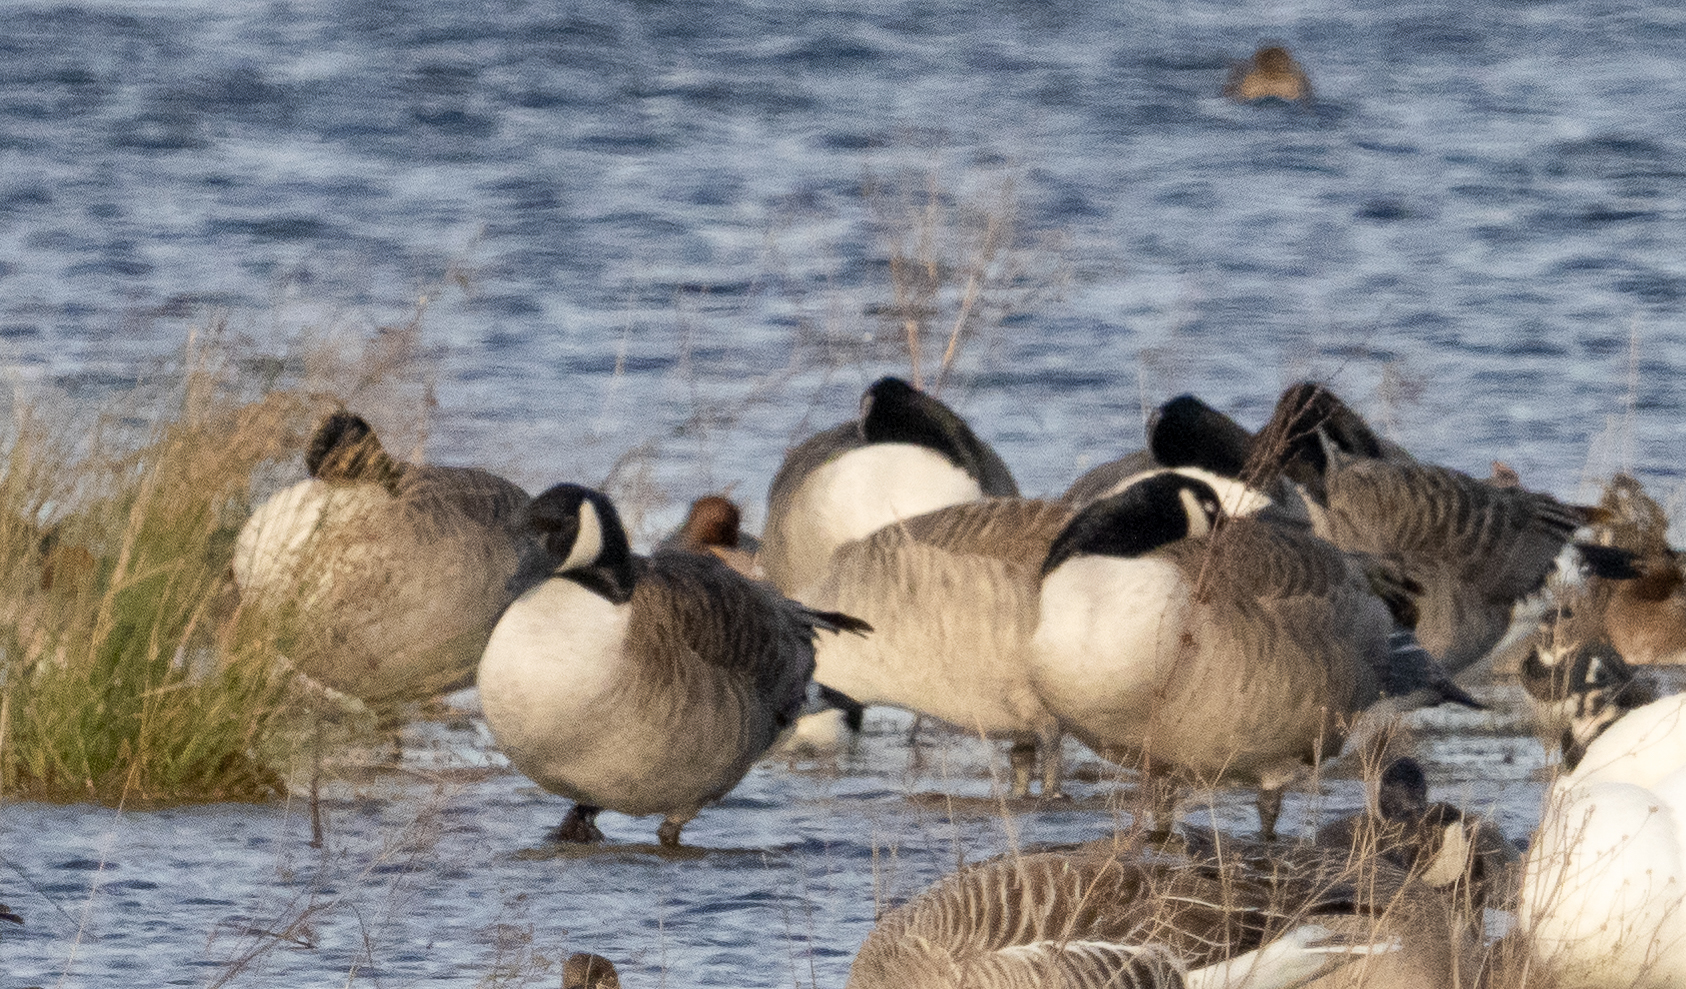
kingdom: Animalia
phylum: Chordata
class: Aves
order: Anseriformes
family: Anatidae
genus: Branta
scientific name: Branta canadensis
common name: Canada goose
